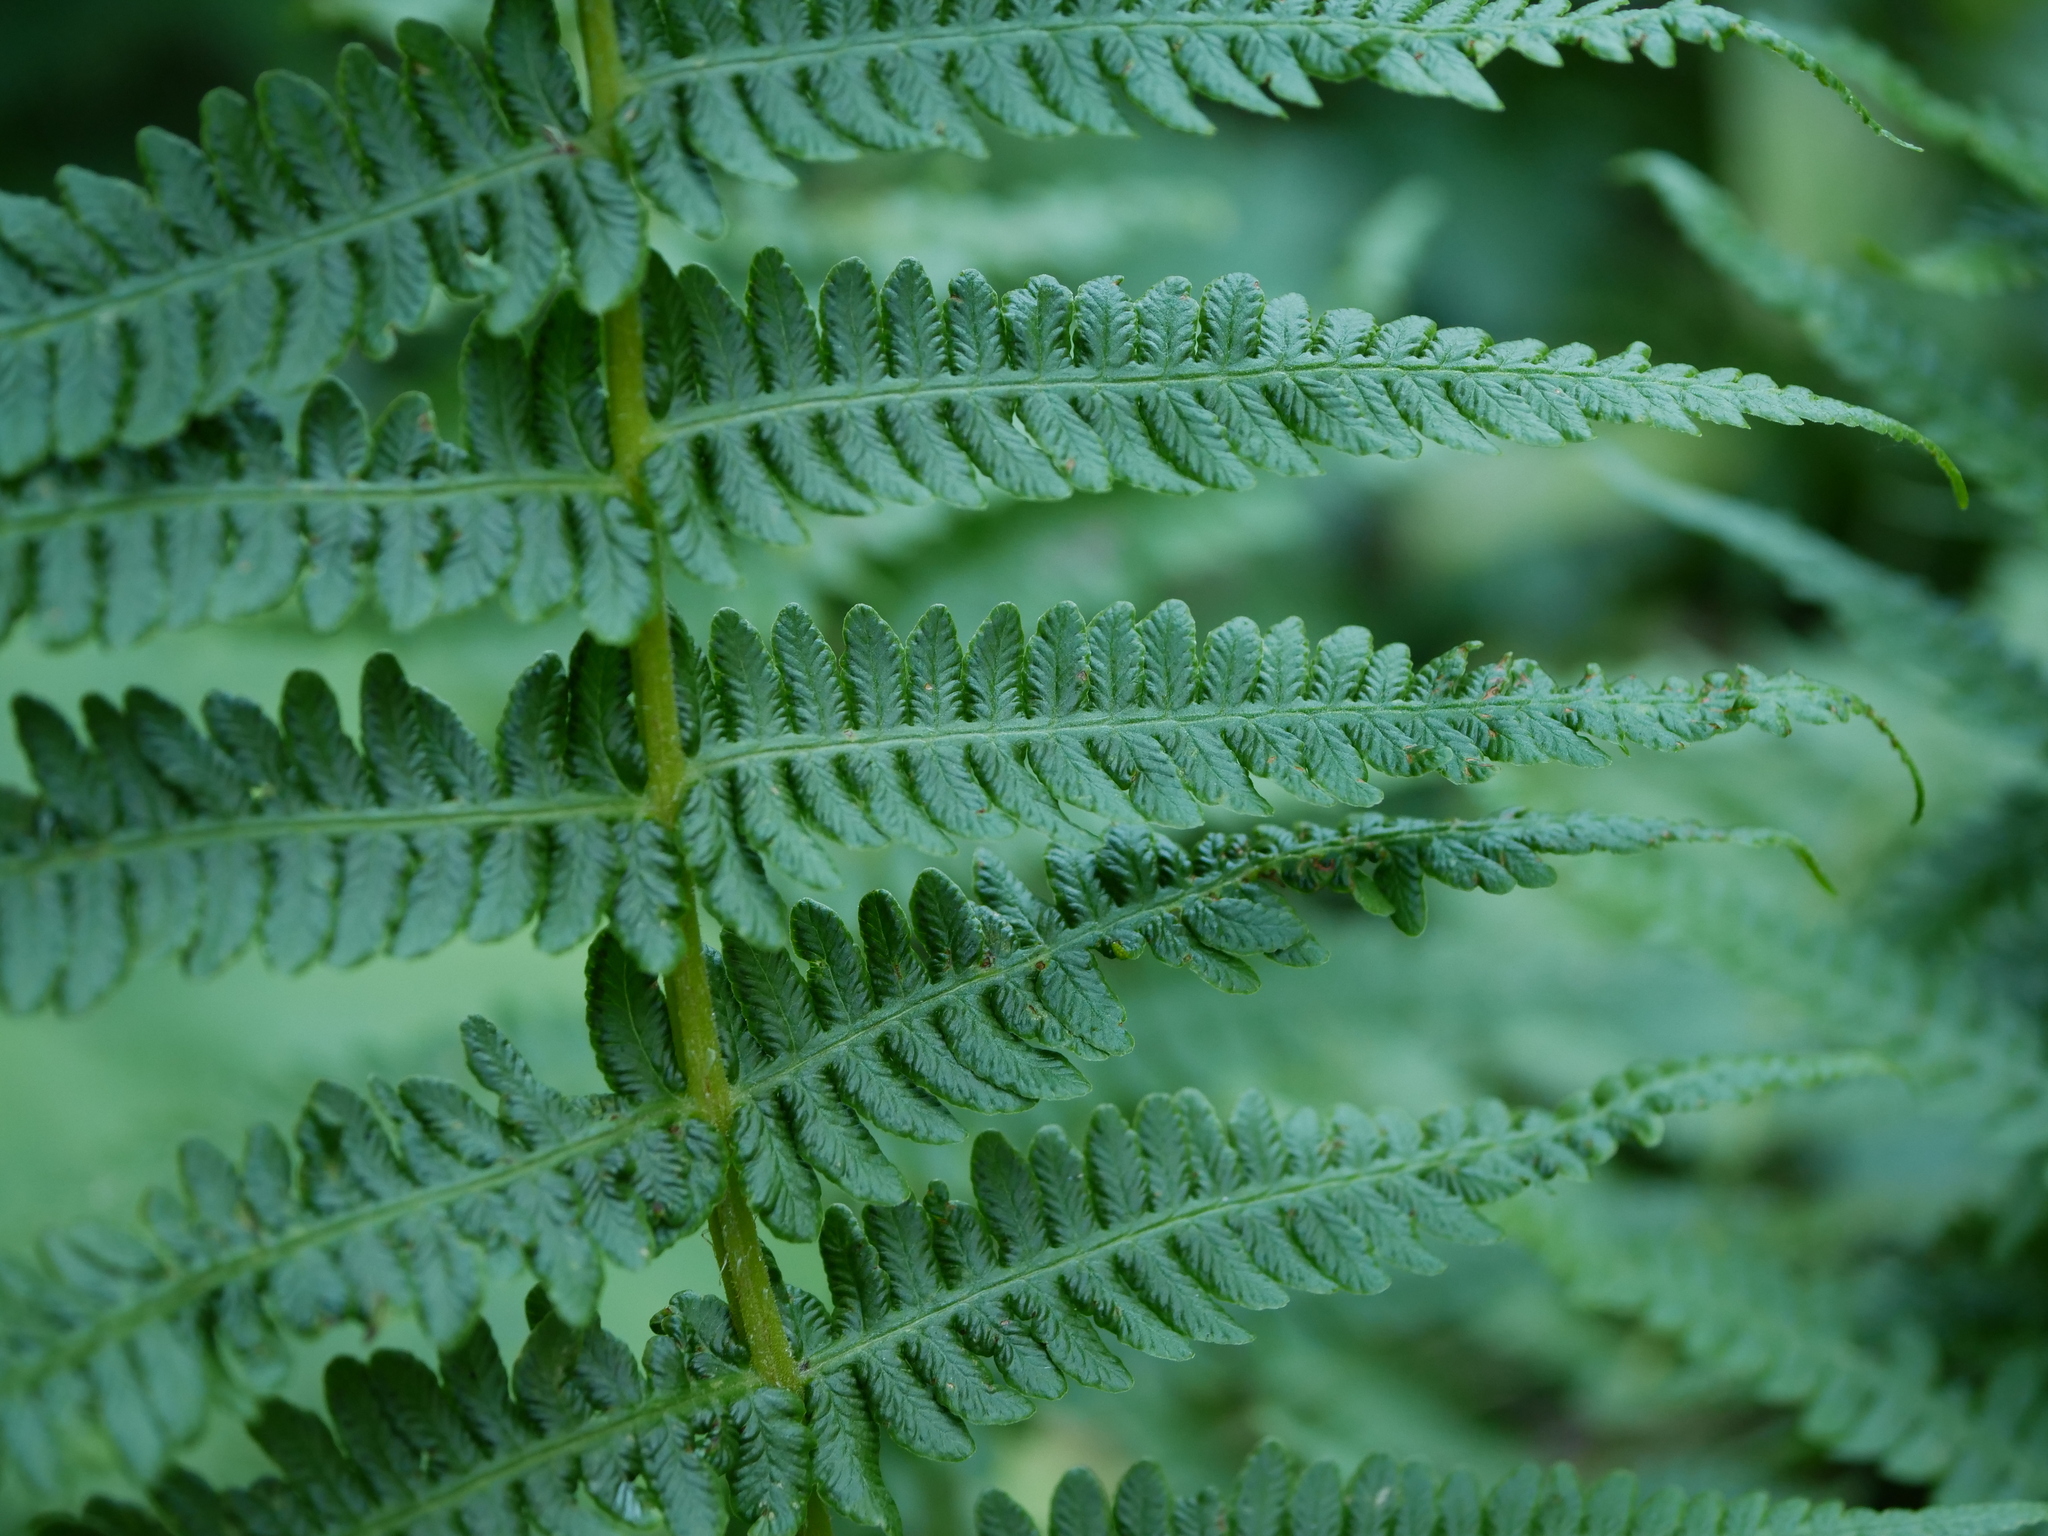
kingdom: Plantae
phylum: Tracheophyta
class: Polypodiopsida
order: Polypodiales
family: Thelypteridaceae
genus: Oreopteris
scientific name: Oreopteris limbosperma
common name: Lemon-scented fern
